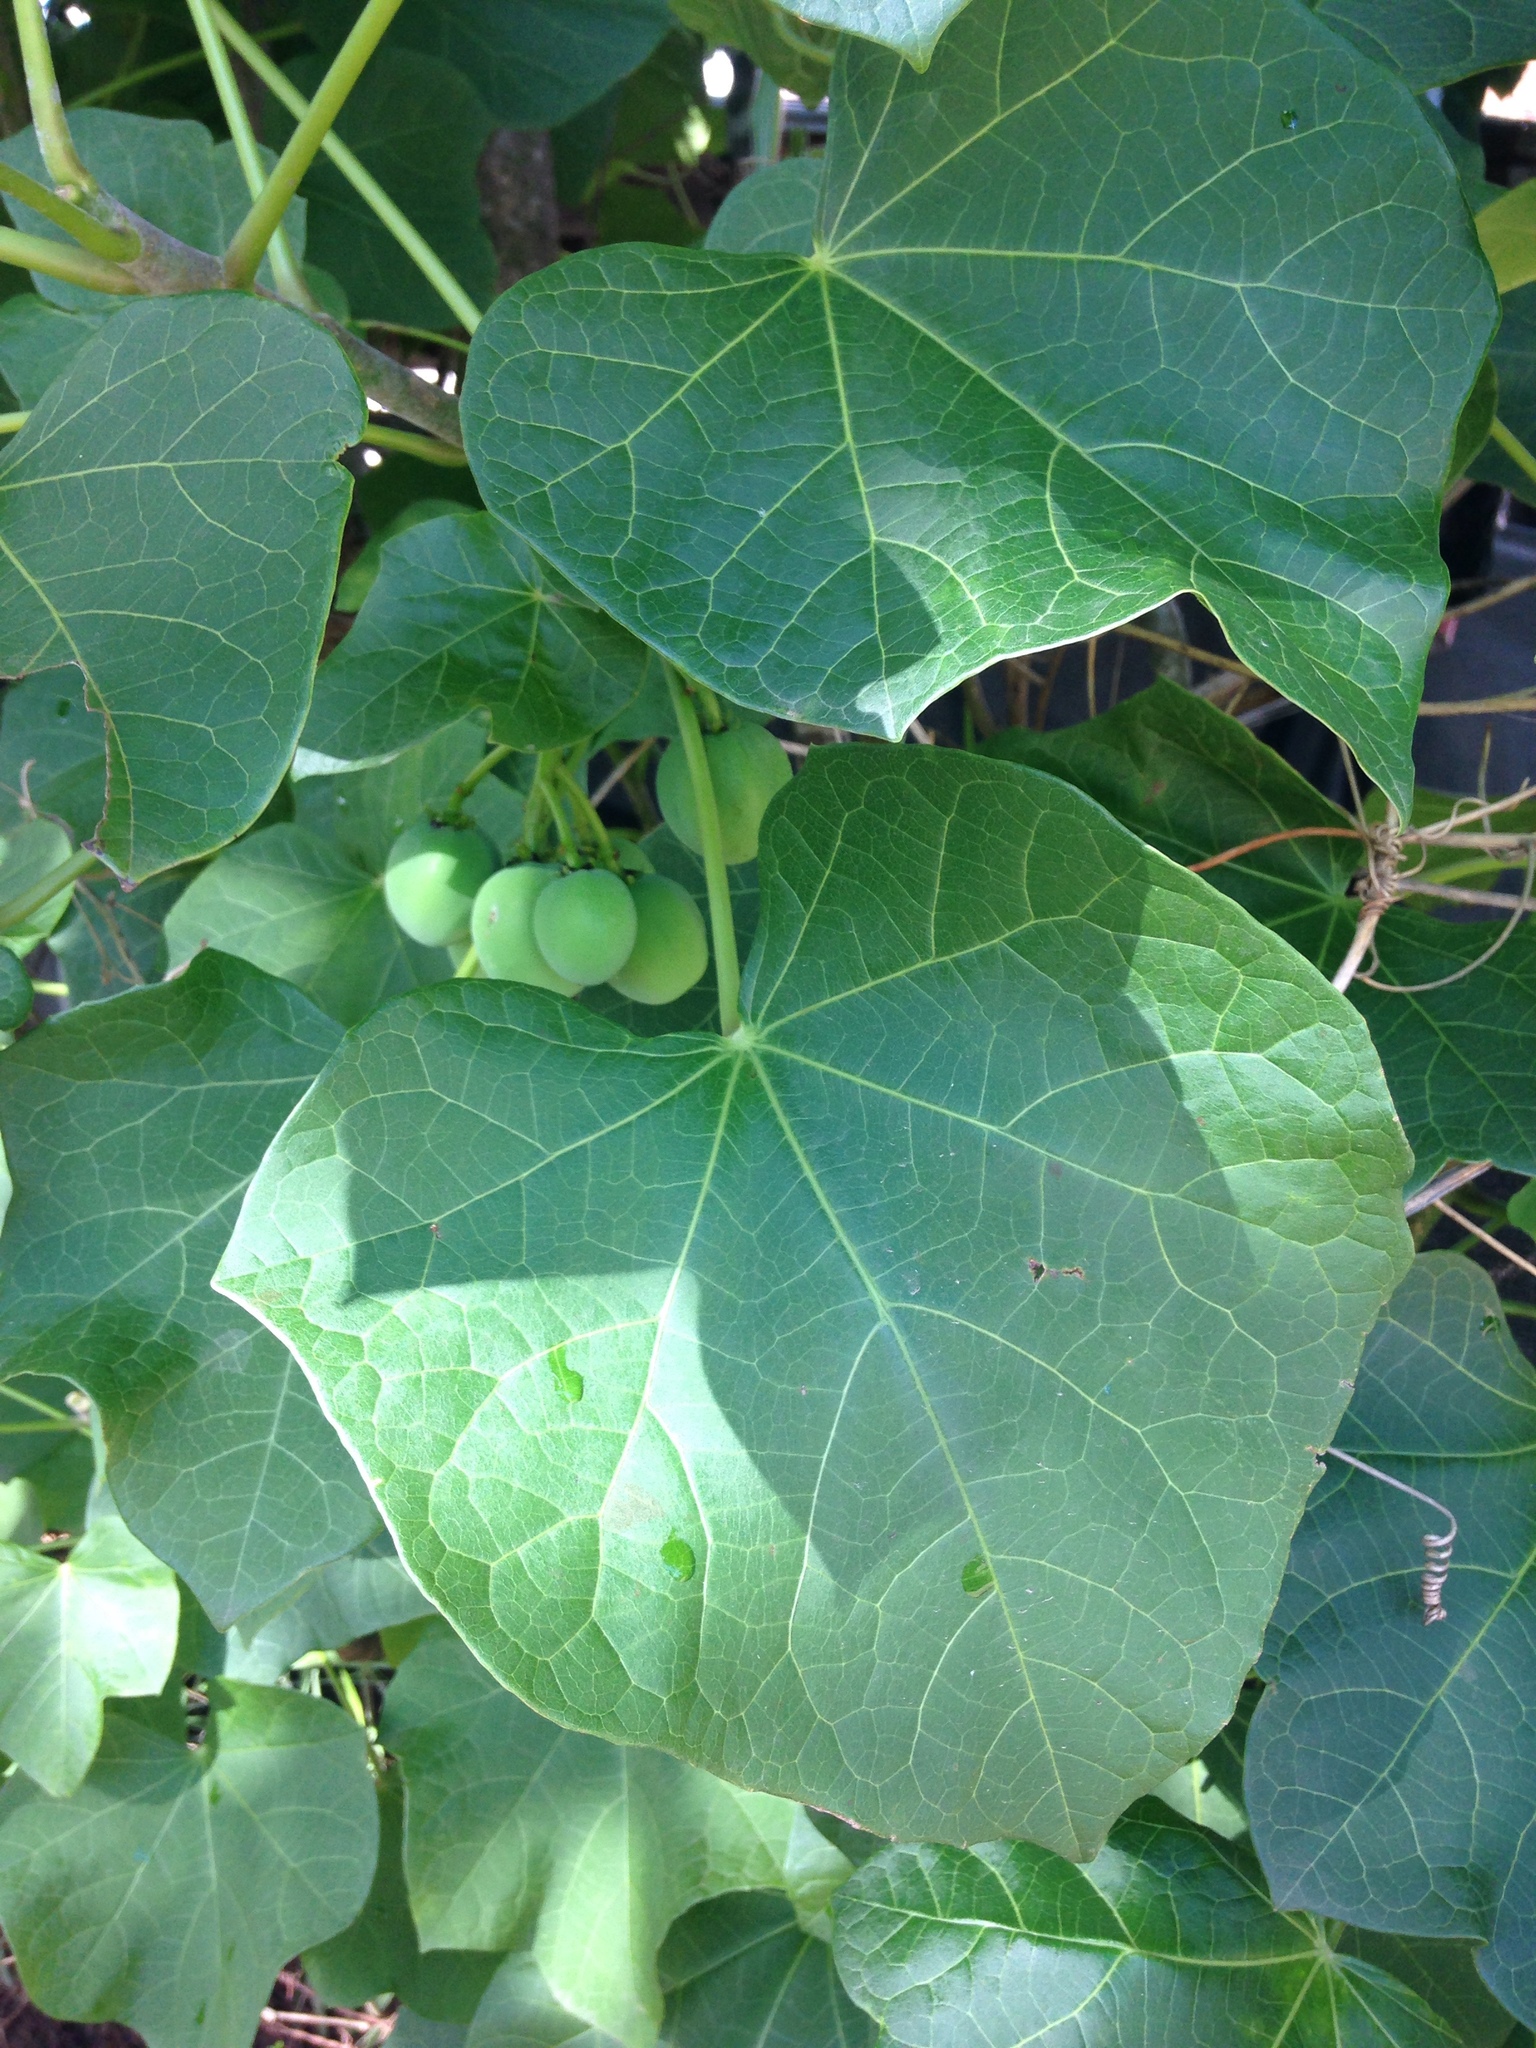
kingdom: Plantae
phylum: Tracheophyta
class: Magnoliopsida
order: Malpighiales
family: Euphorbiaceae
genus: Jatropha
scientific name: Jatropha curcas
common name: Barbados nut
